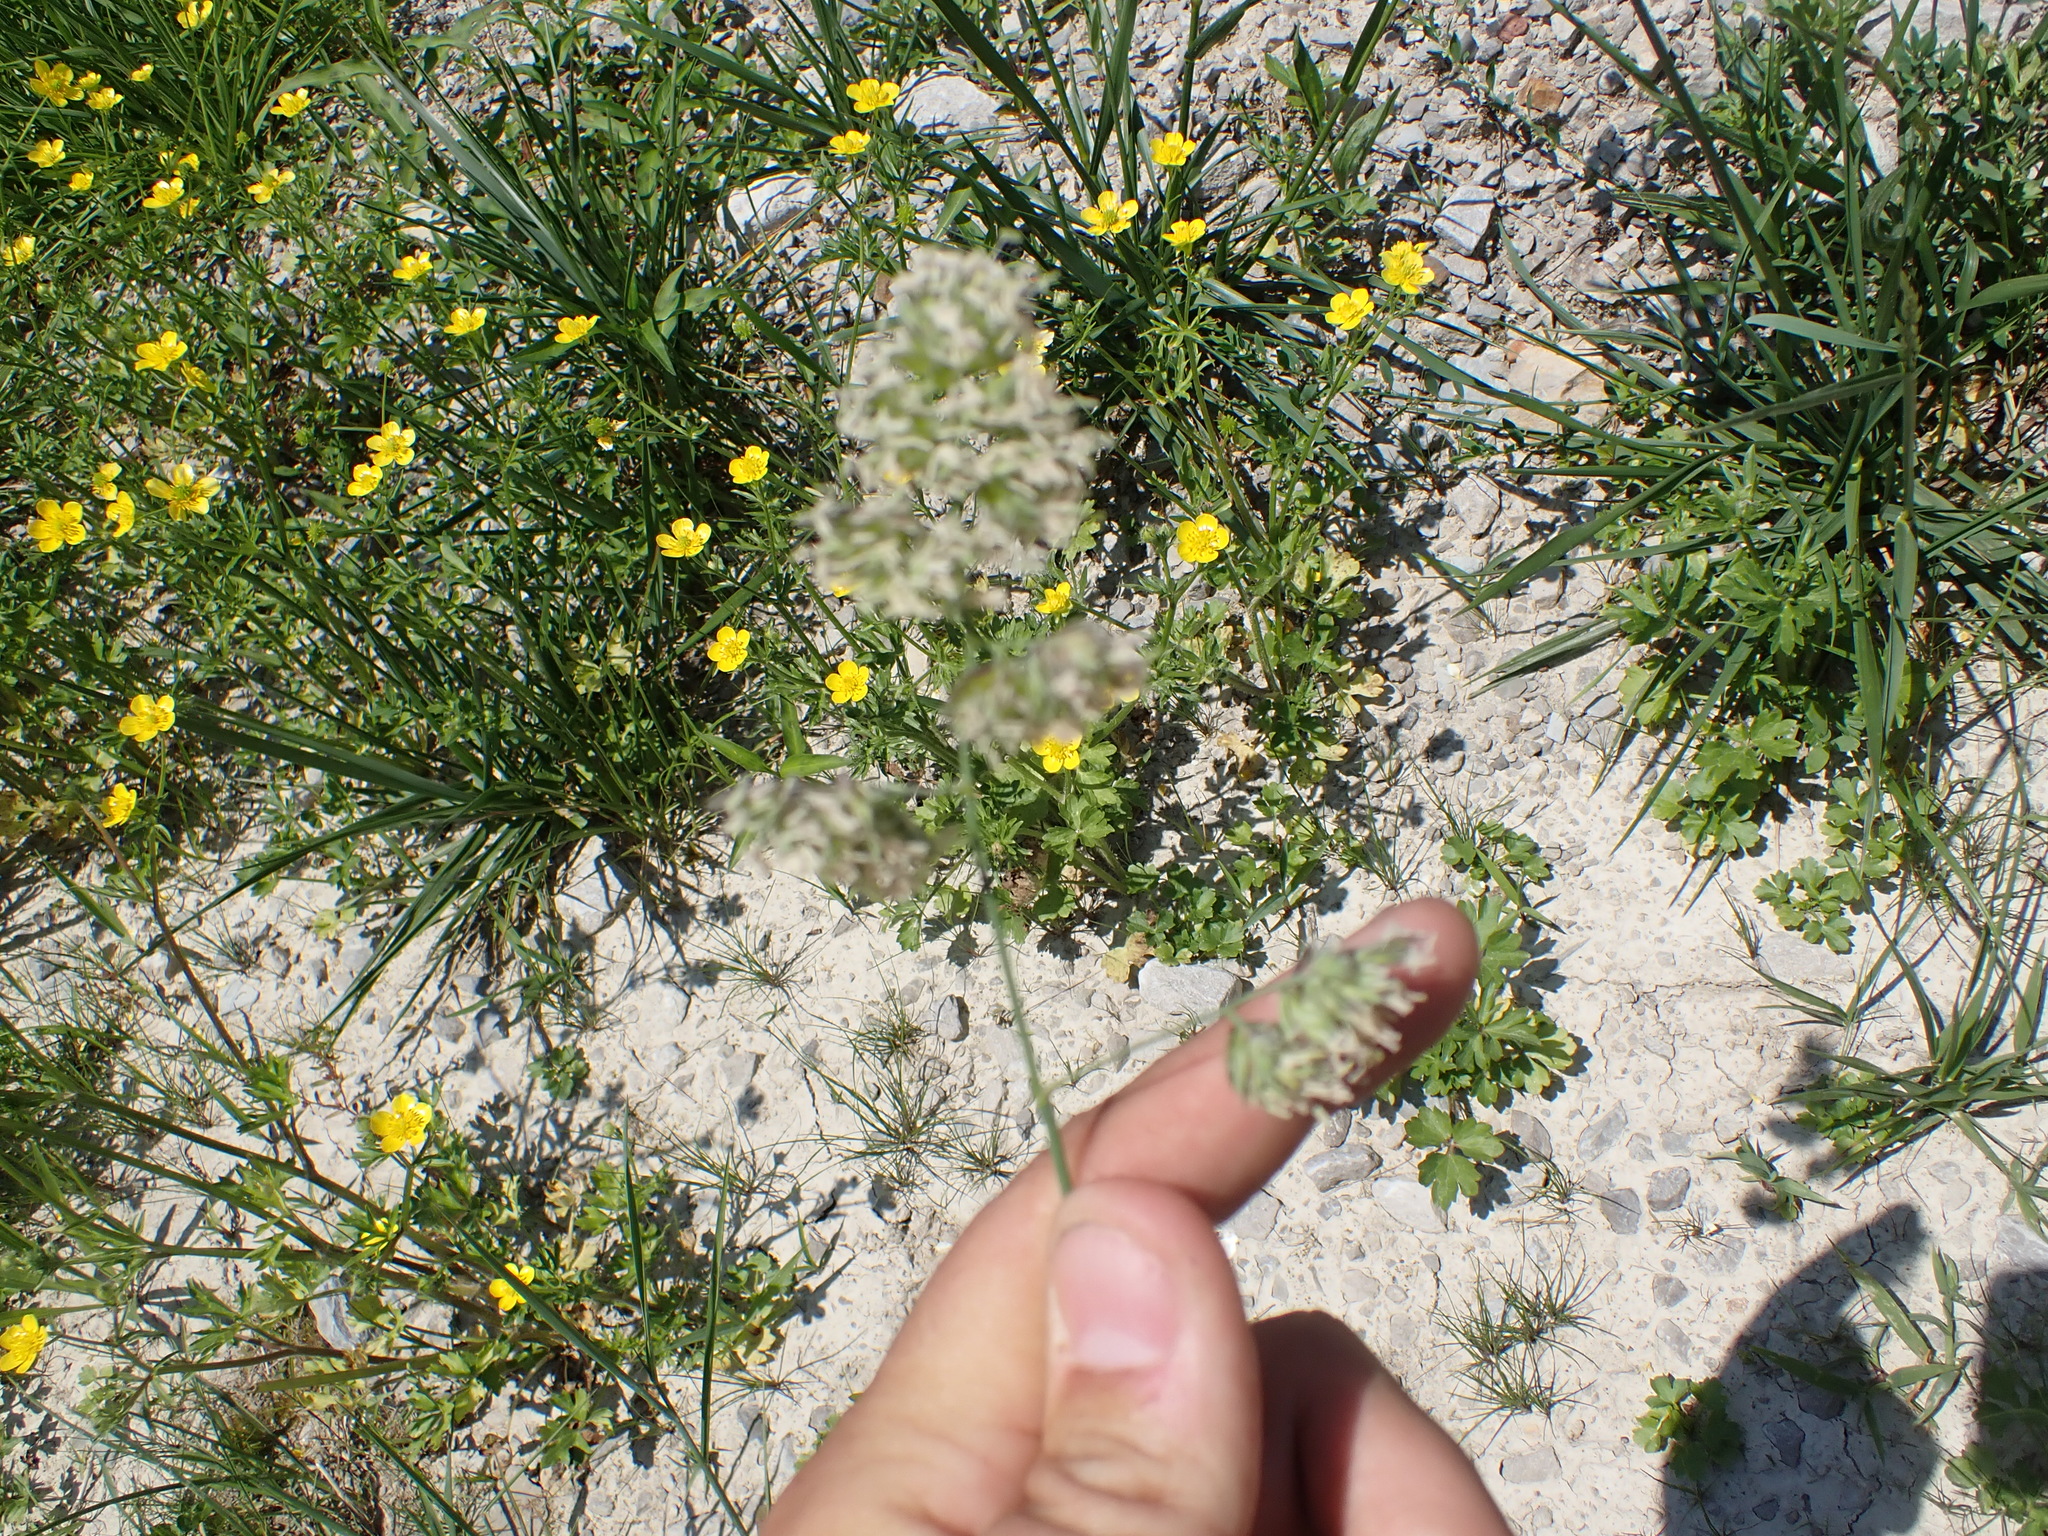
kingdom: Plantae
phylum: Tracheophyta
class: Liliopsida
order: Poales
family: Poaceae
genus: Dactylis
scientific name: Dactylis glomerata
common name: Orchardgrass
